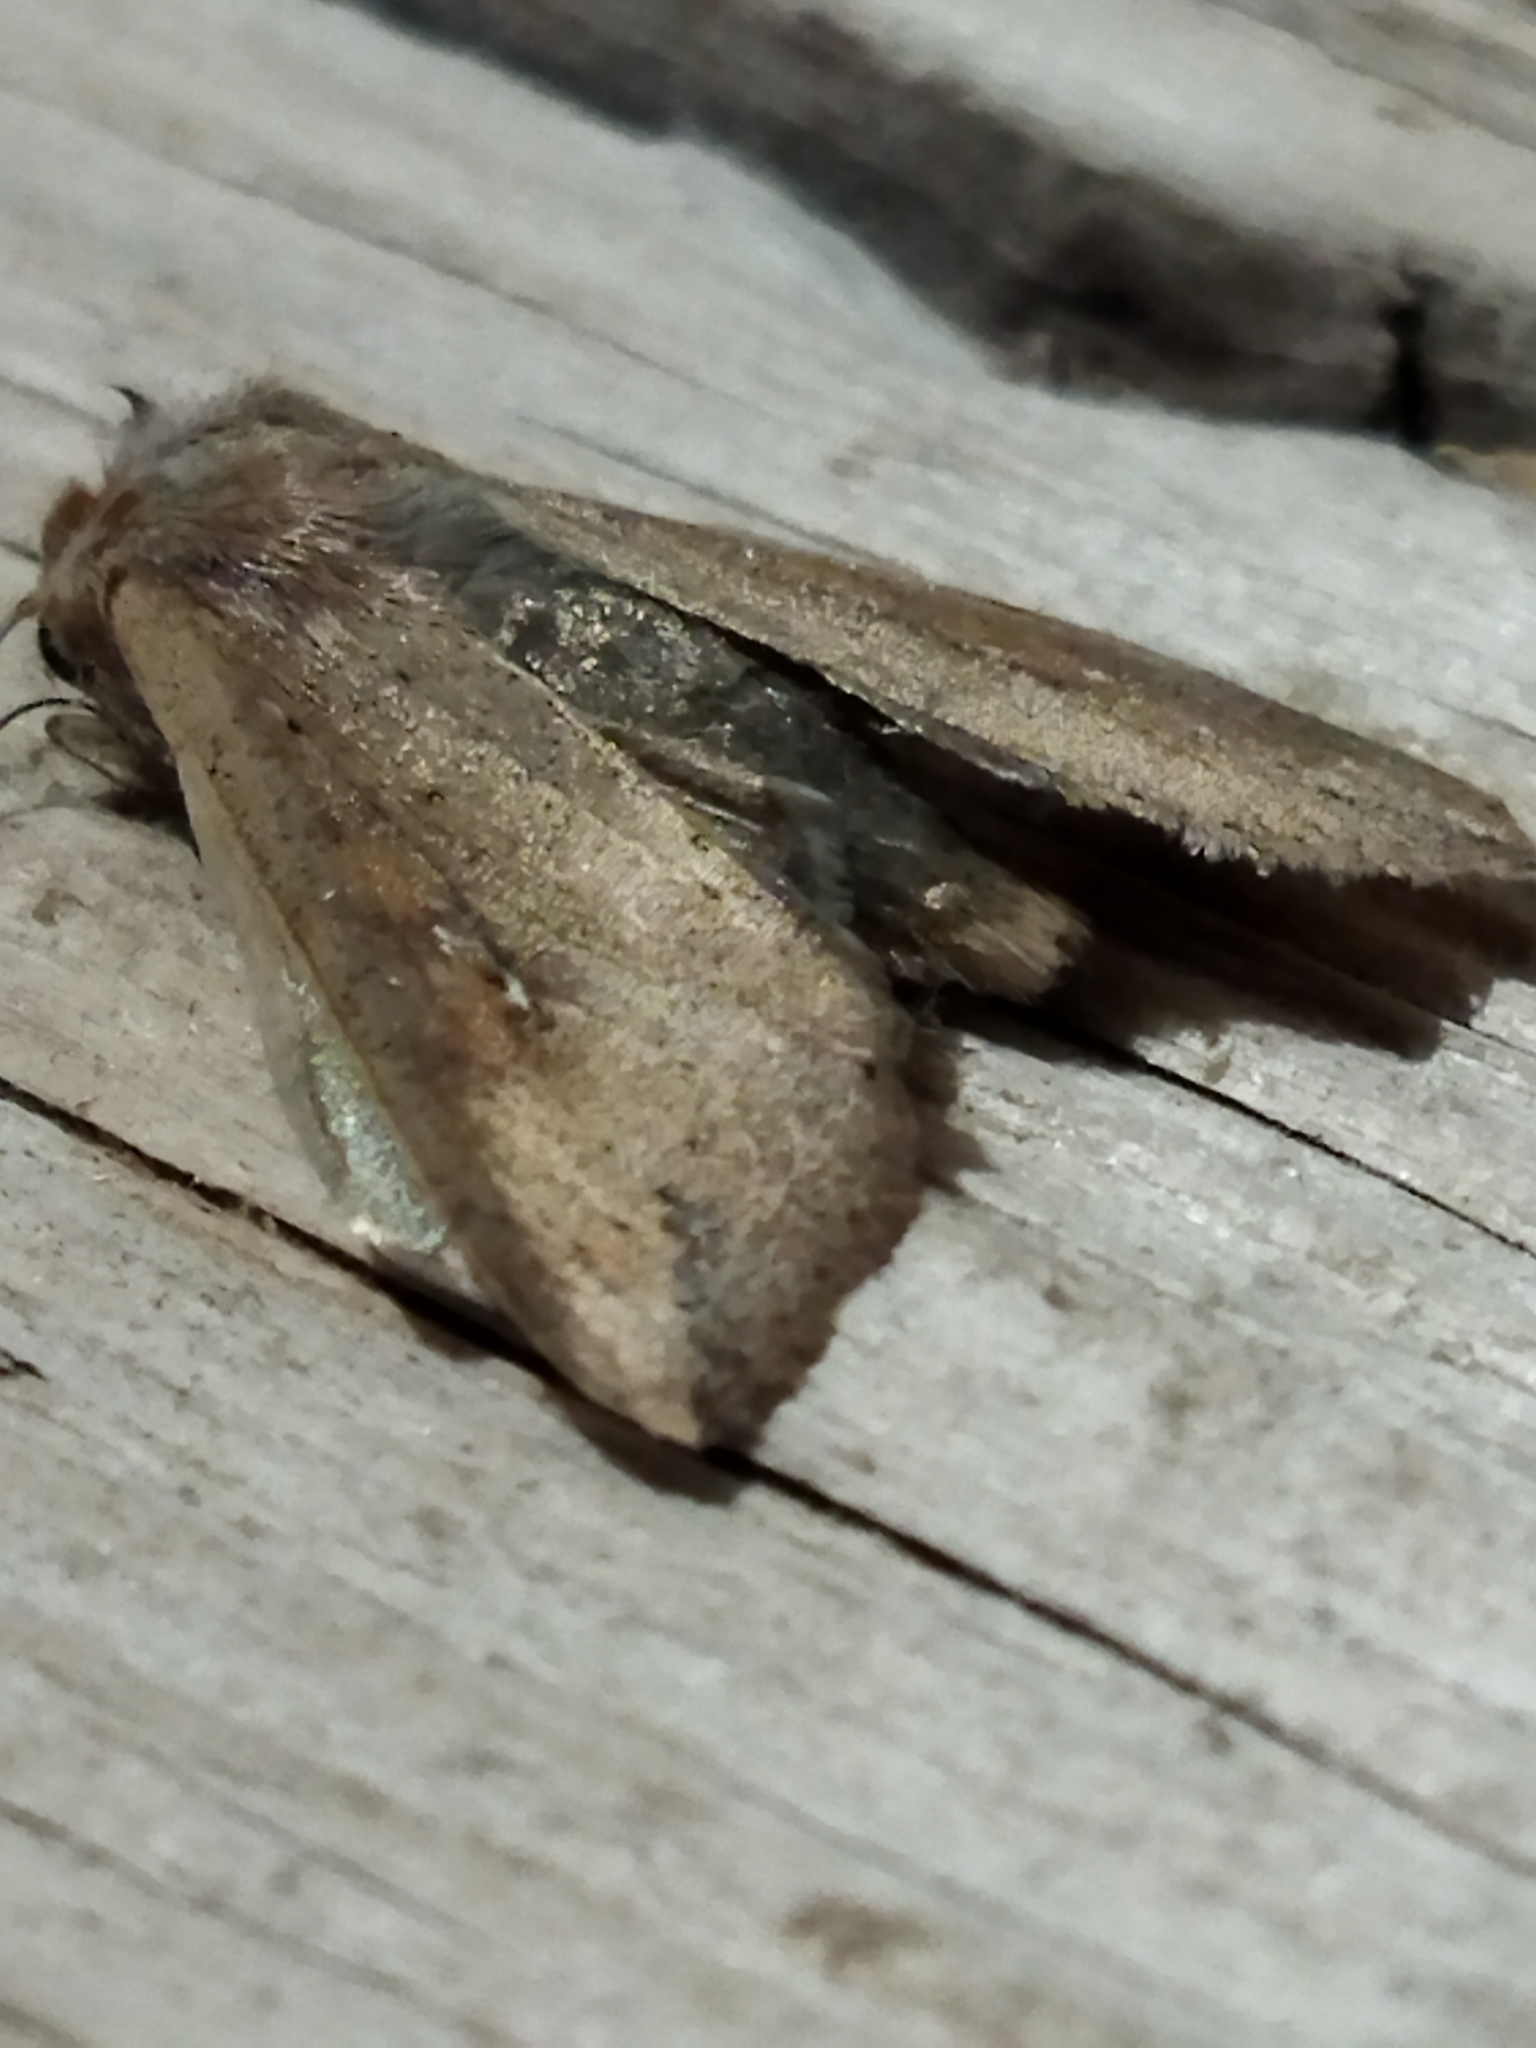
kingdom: Animalia
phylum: Arthropoda
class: Insecta
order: Lepidoptera
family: Noctuidae
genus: Mythimna
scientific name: Mythimna unipuncta
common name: White-speck
